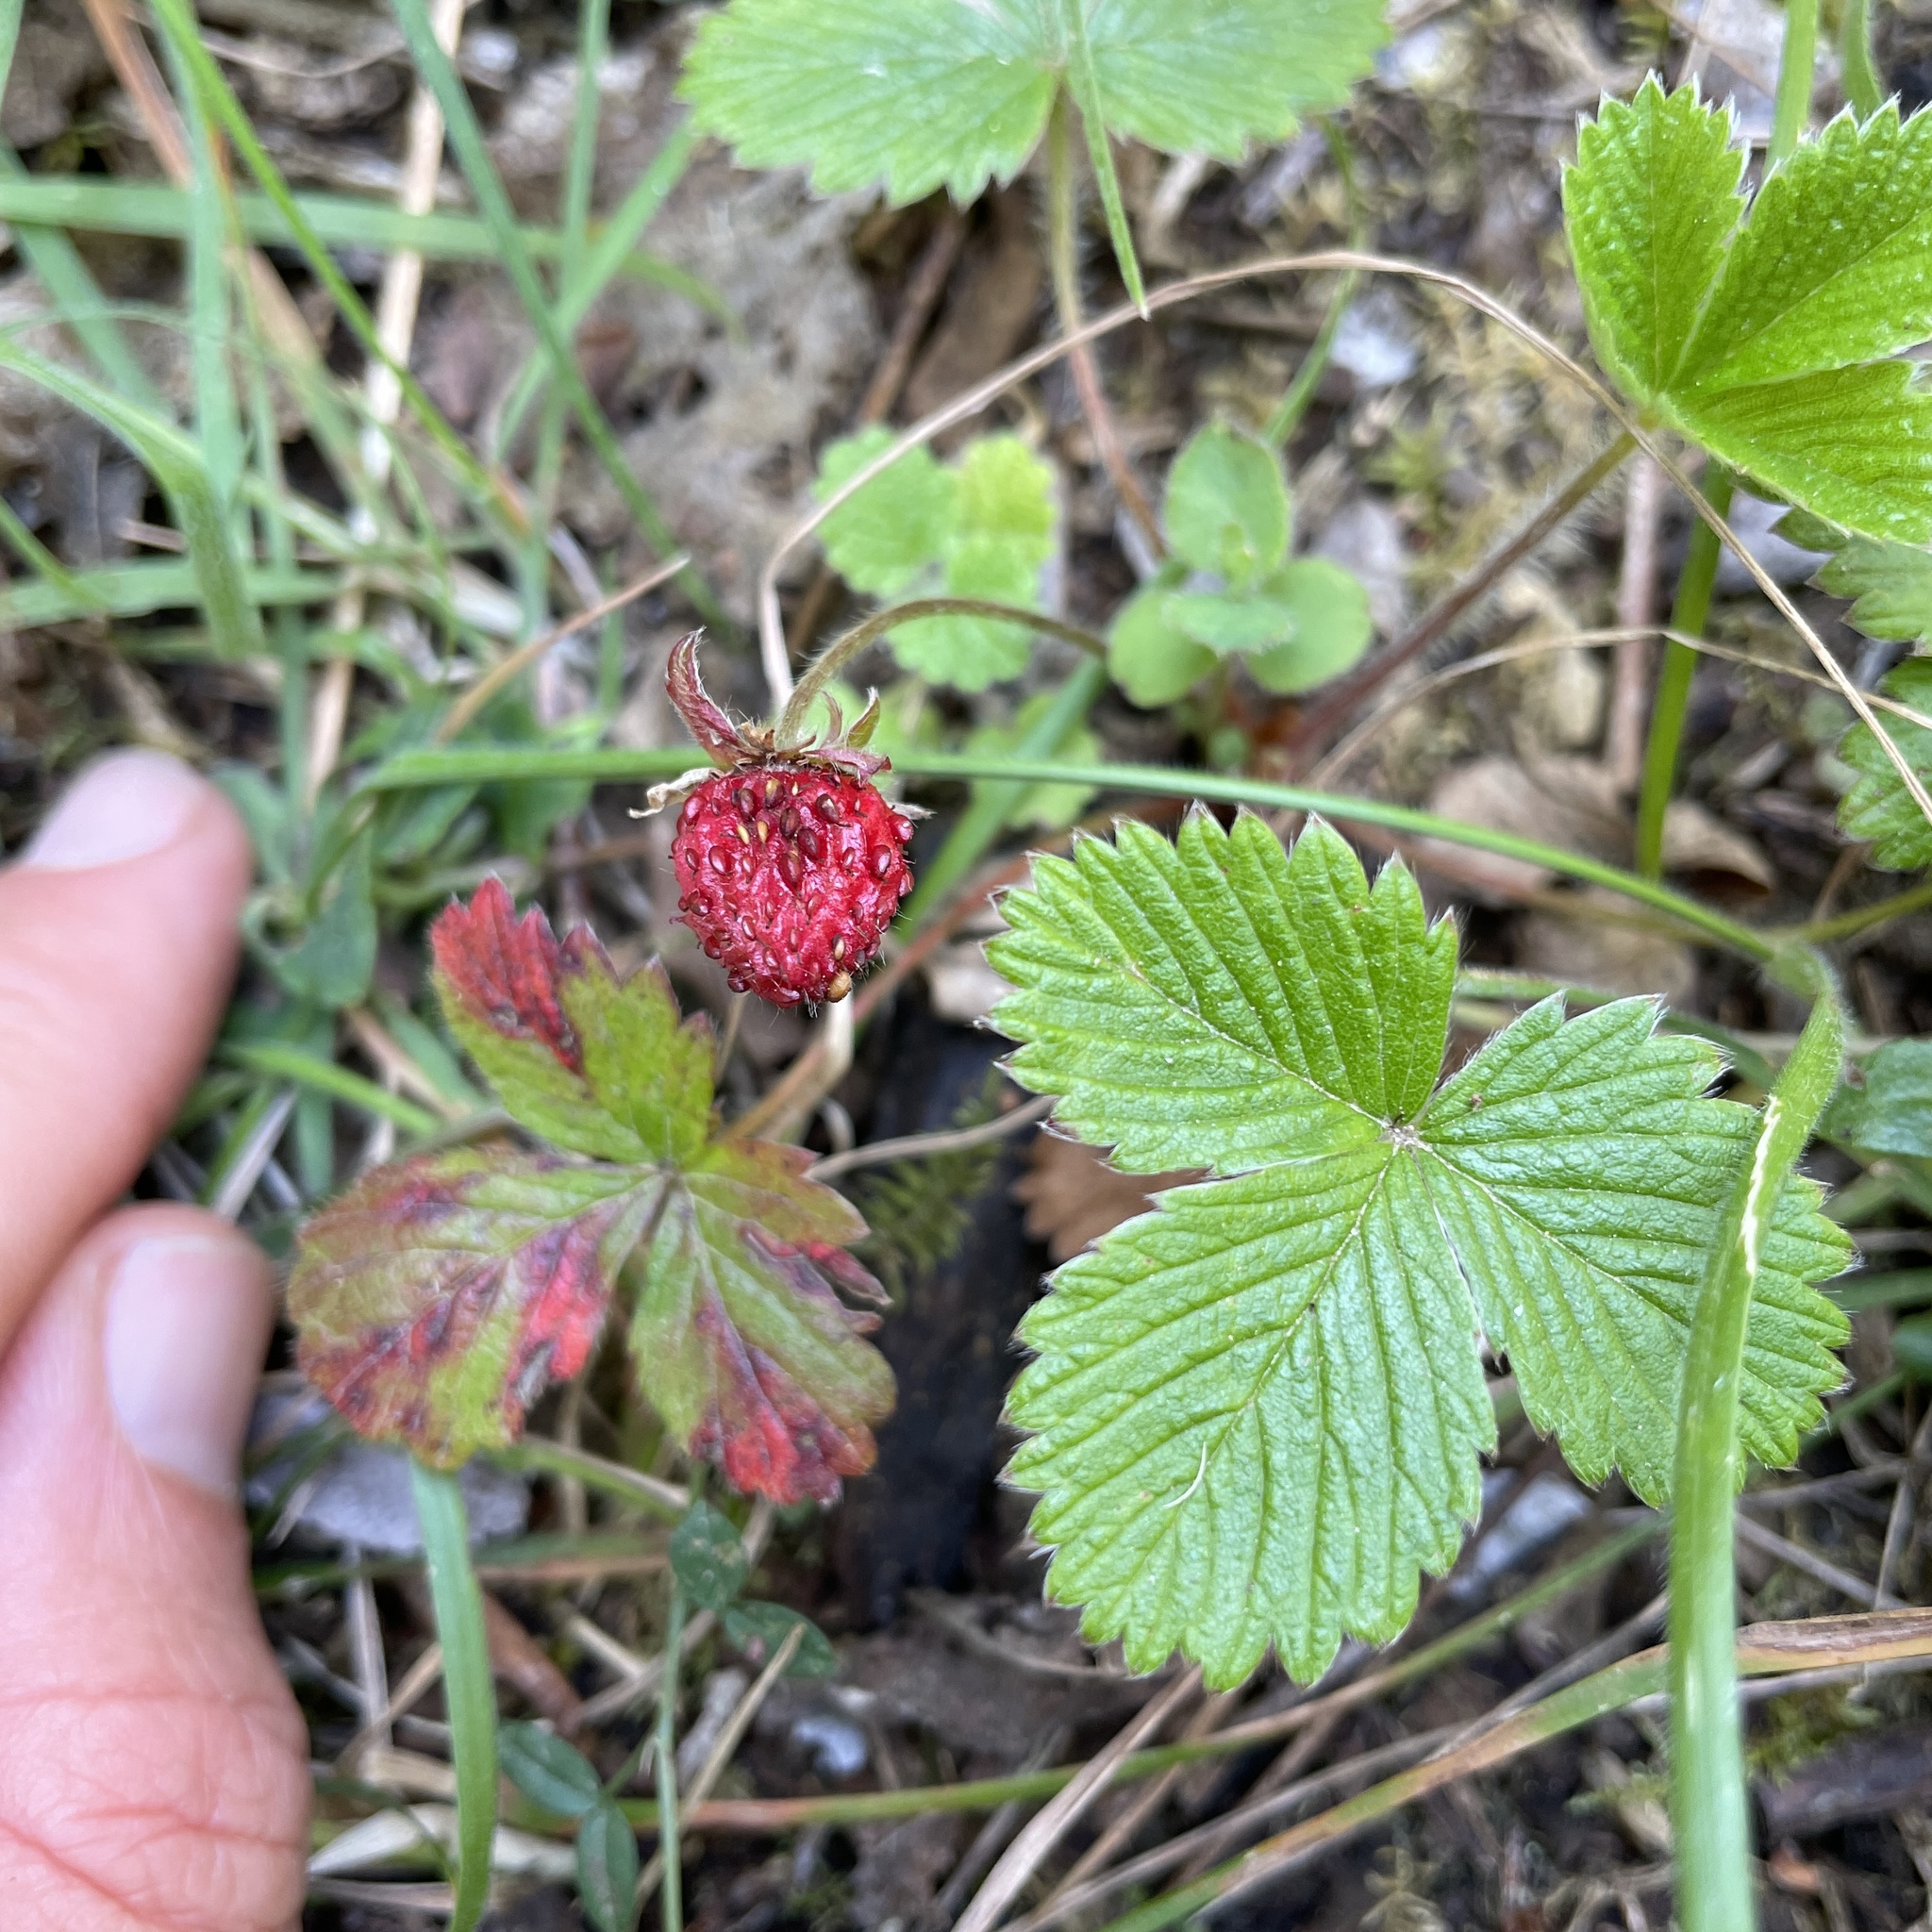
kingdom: Plantae
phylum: Tracheophyta
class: Magnoliopsida
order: Rosales
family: Rosaceae
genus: Fragaria
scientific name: Fragaria vesca
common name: Wild strawberry
